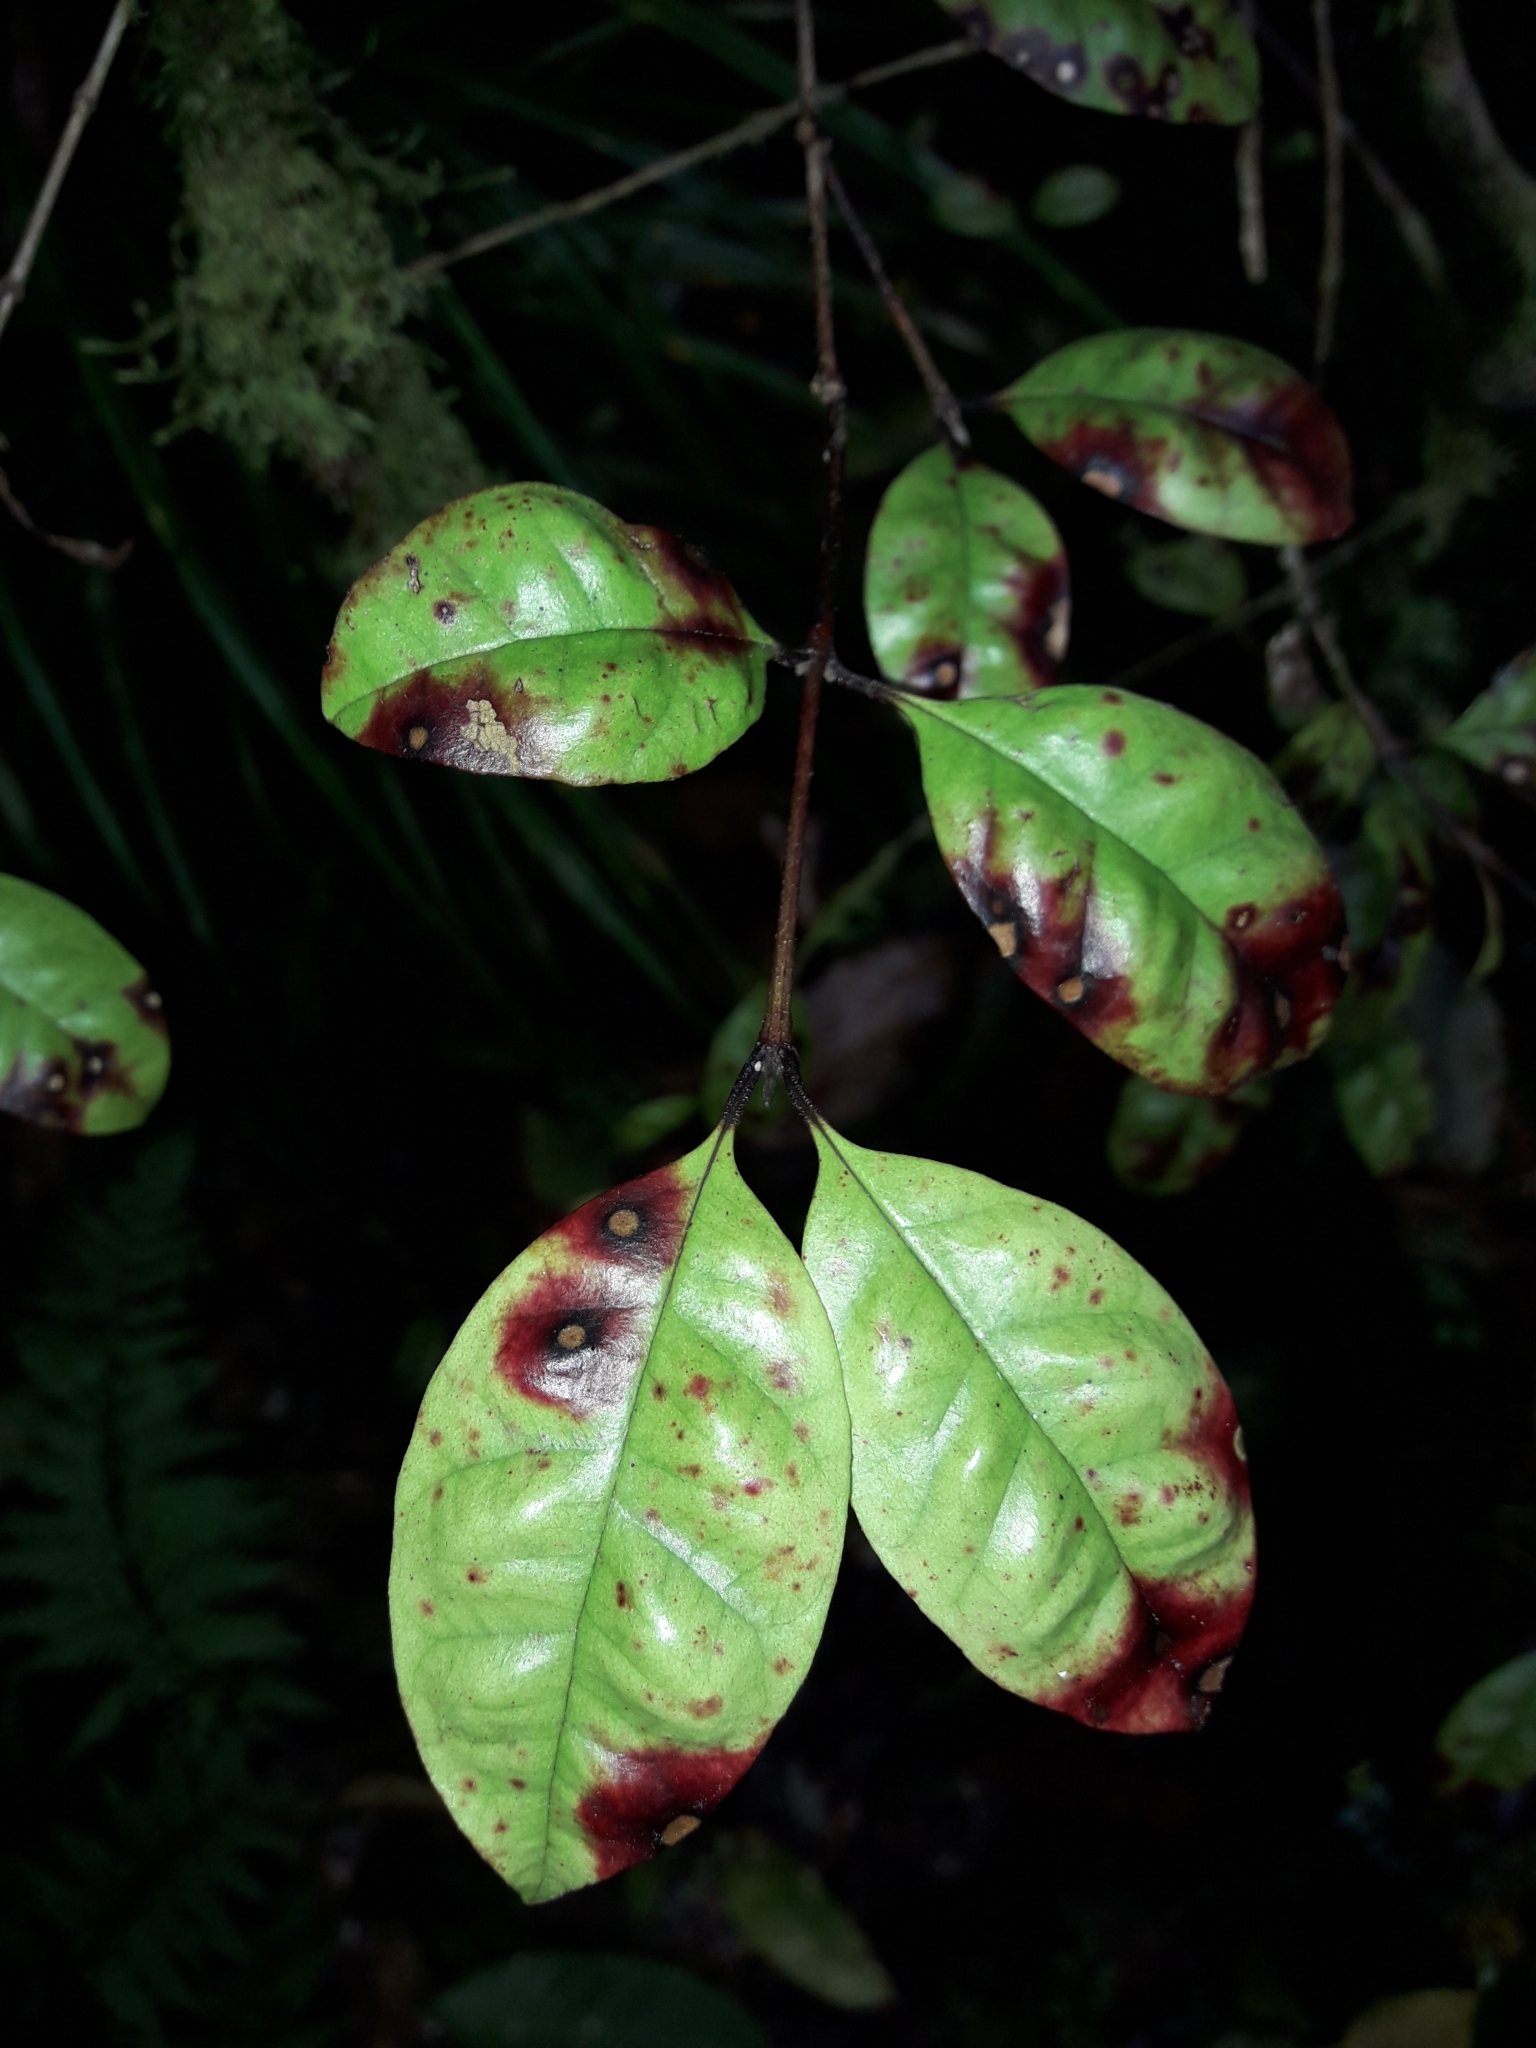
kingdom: Plantae
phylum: Tracheophyta
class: Magnoliopsida
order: Myrtales
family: Myrtaceae
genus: Lophomyrtus
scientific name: Lophomyrtus bullata
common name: Rama rama
